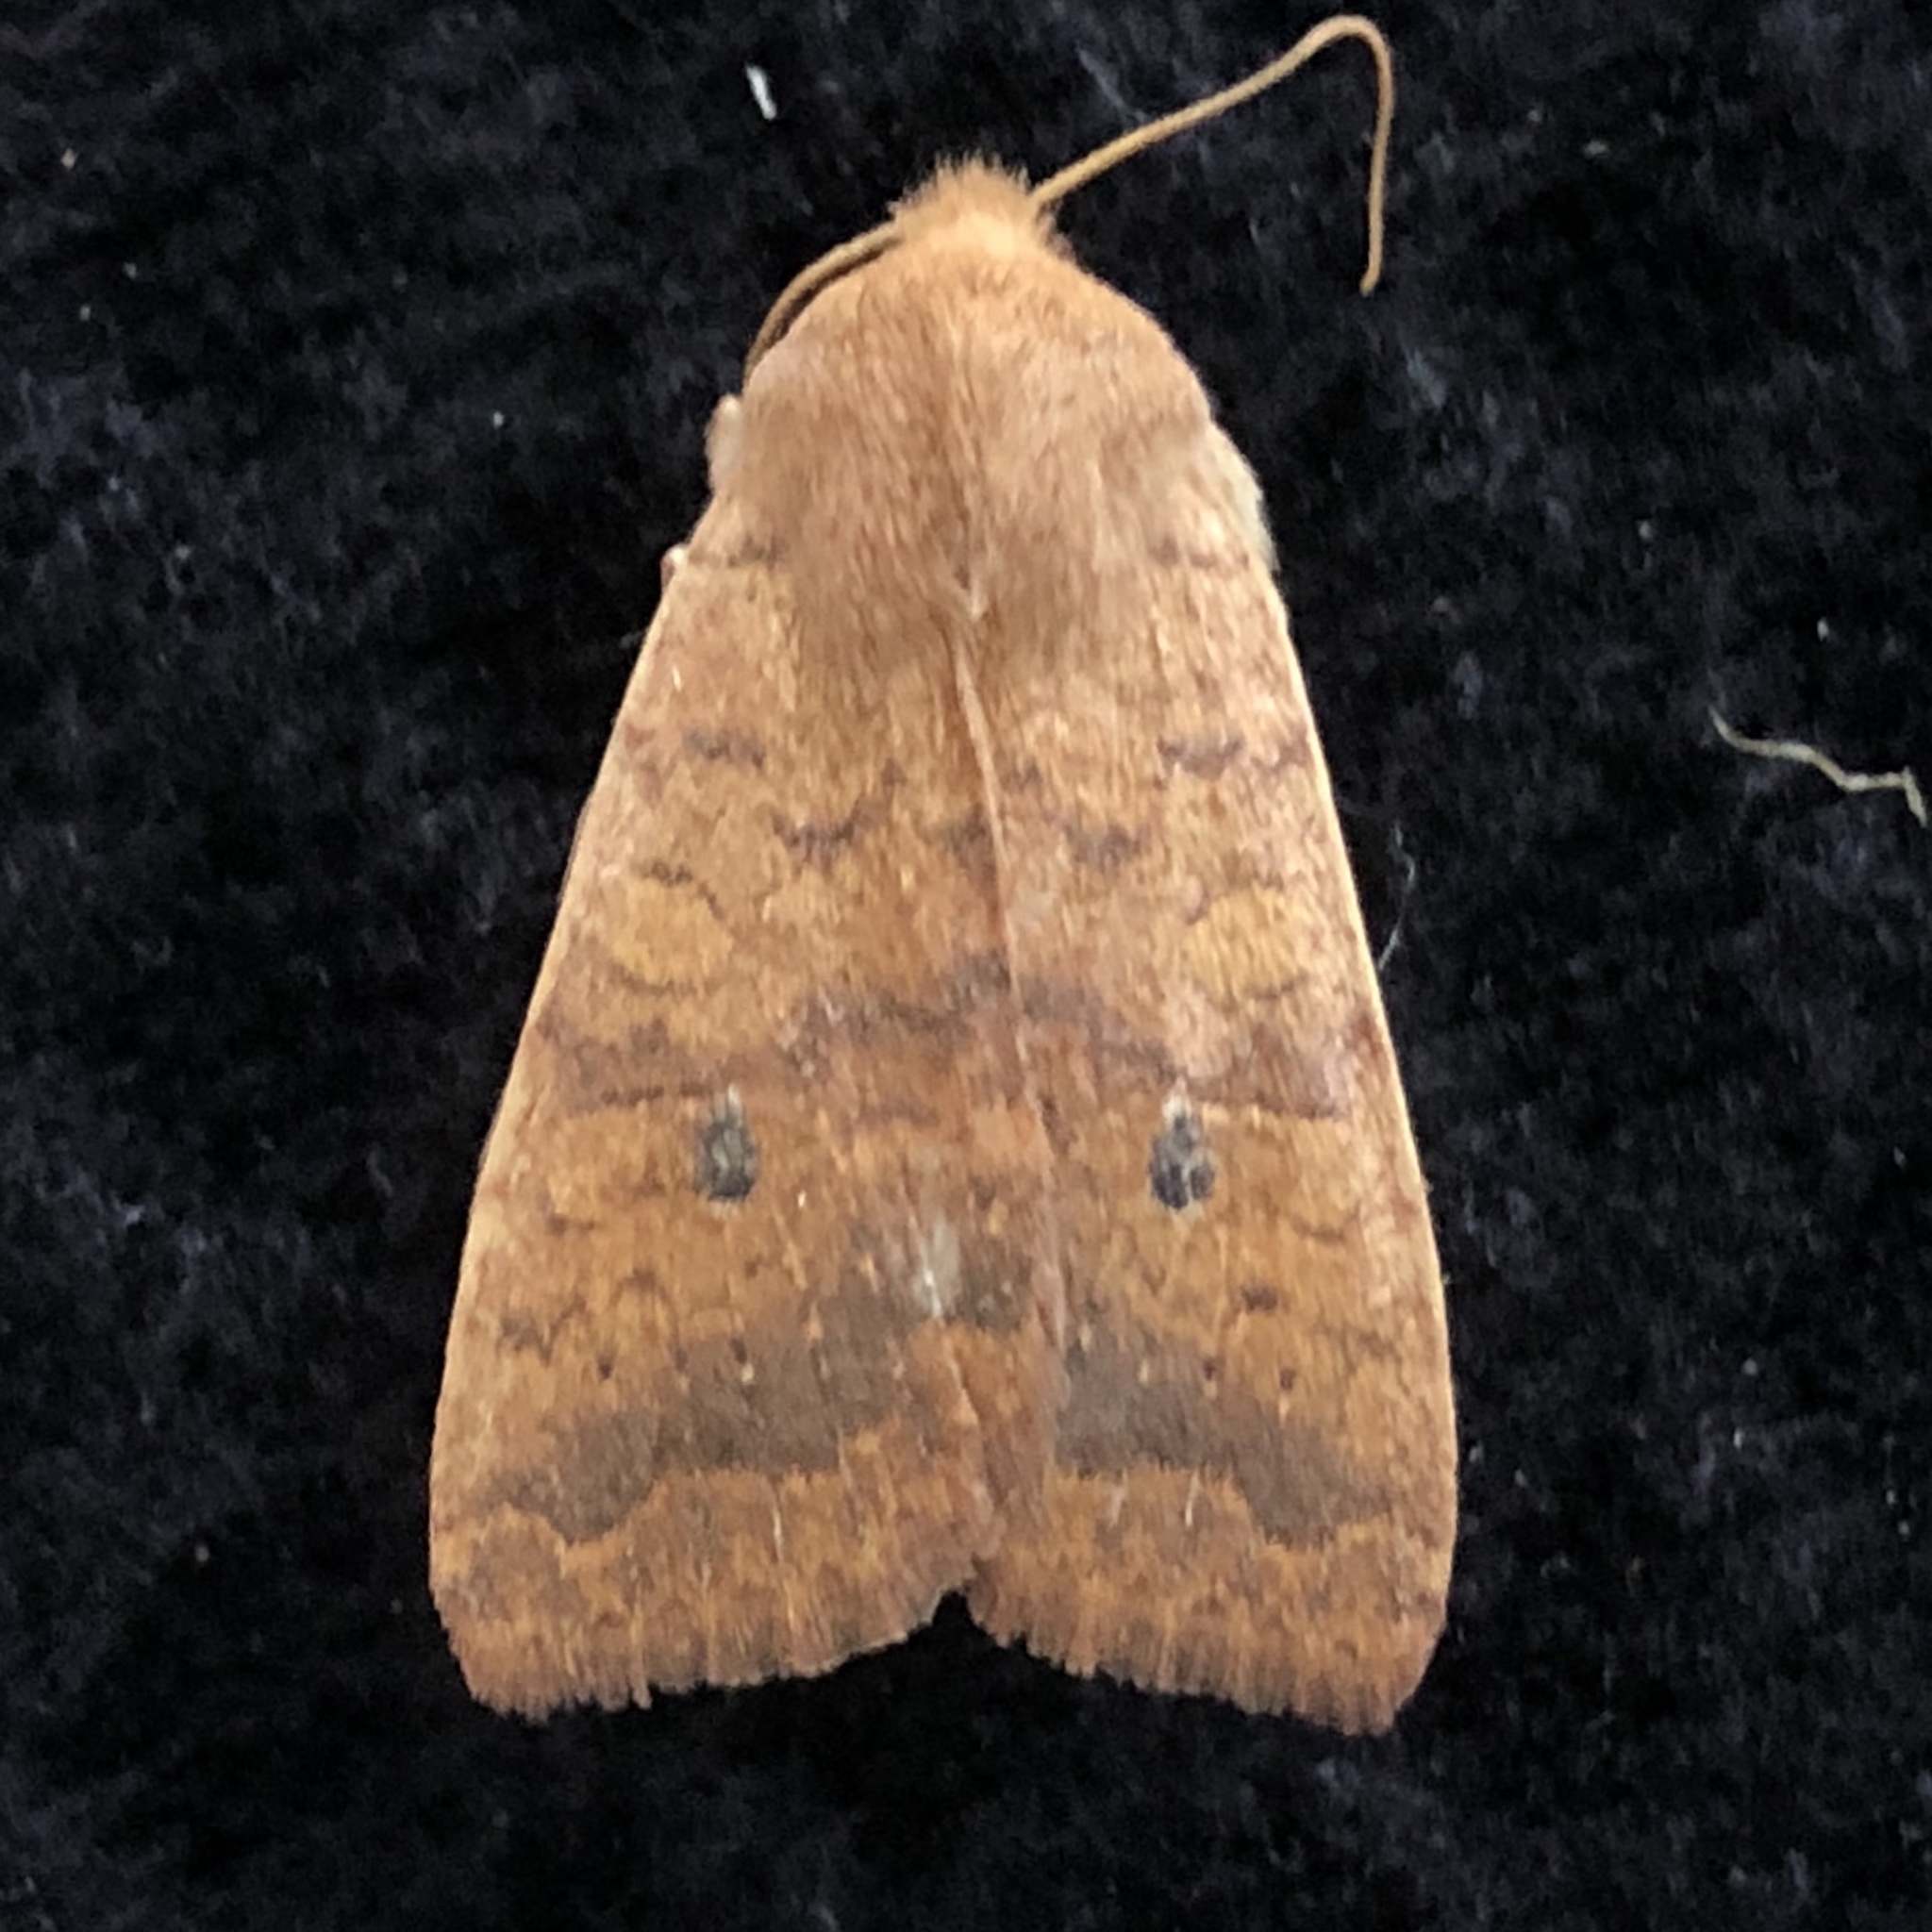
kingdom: Animalia
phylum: Arthropoda
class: Insecta
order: Lepidoptera
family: Noctuidae
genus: Agrochola
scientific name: Agrochola bicolorago
